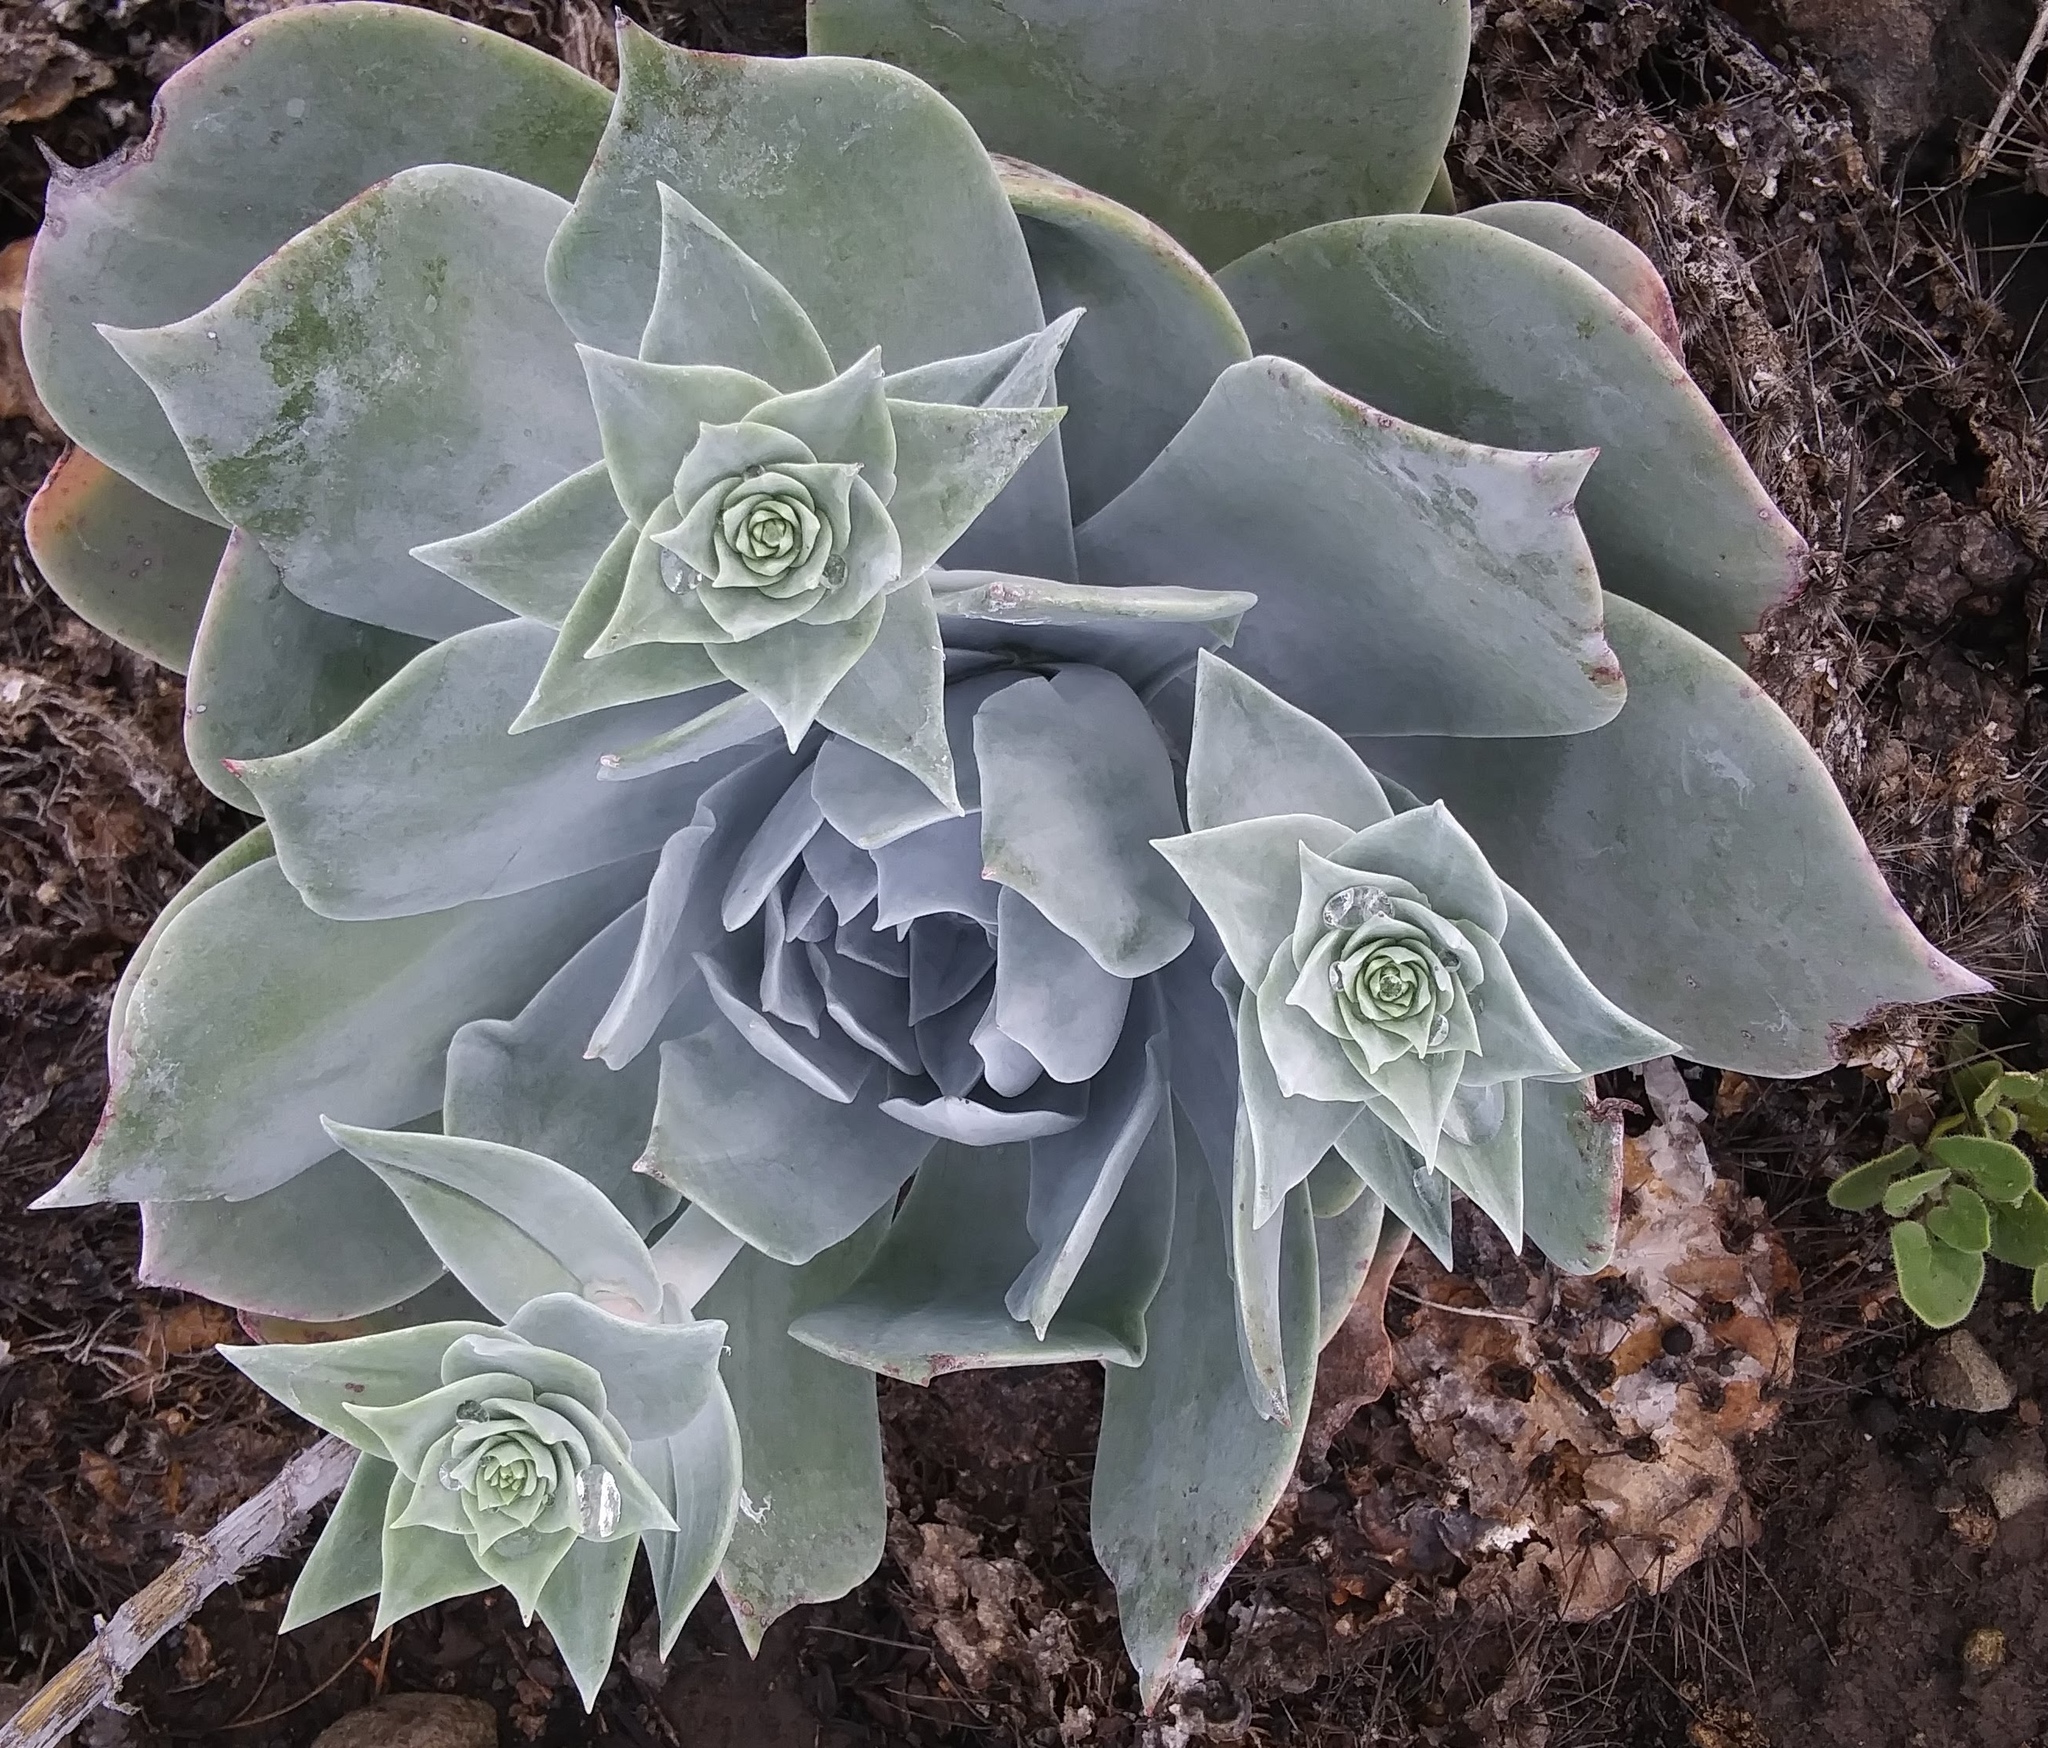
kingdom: Plantae
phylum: Tracheophyta
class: Magnoliopsida
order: Saxifragales
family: Crassulaceae
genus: Dudleya
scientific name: Dudleya pulverulenta
